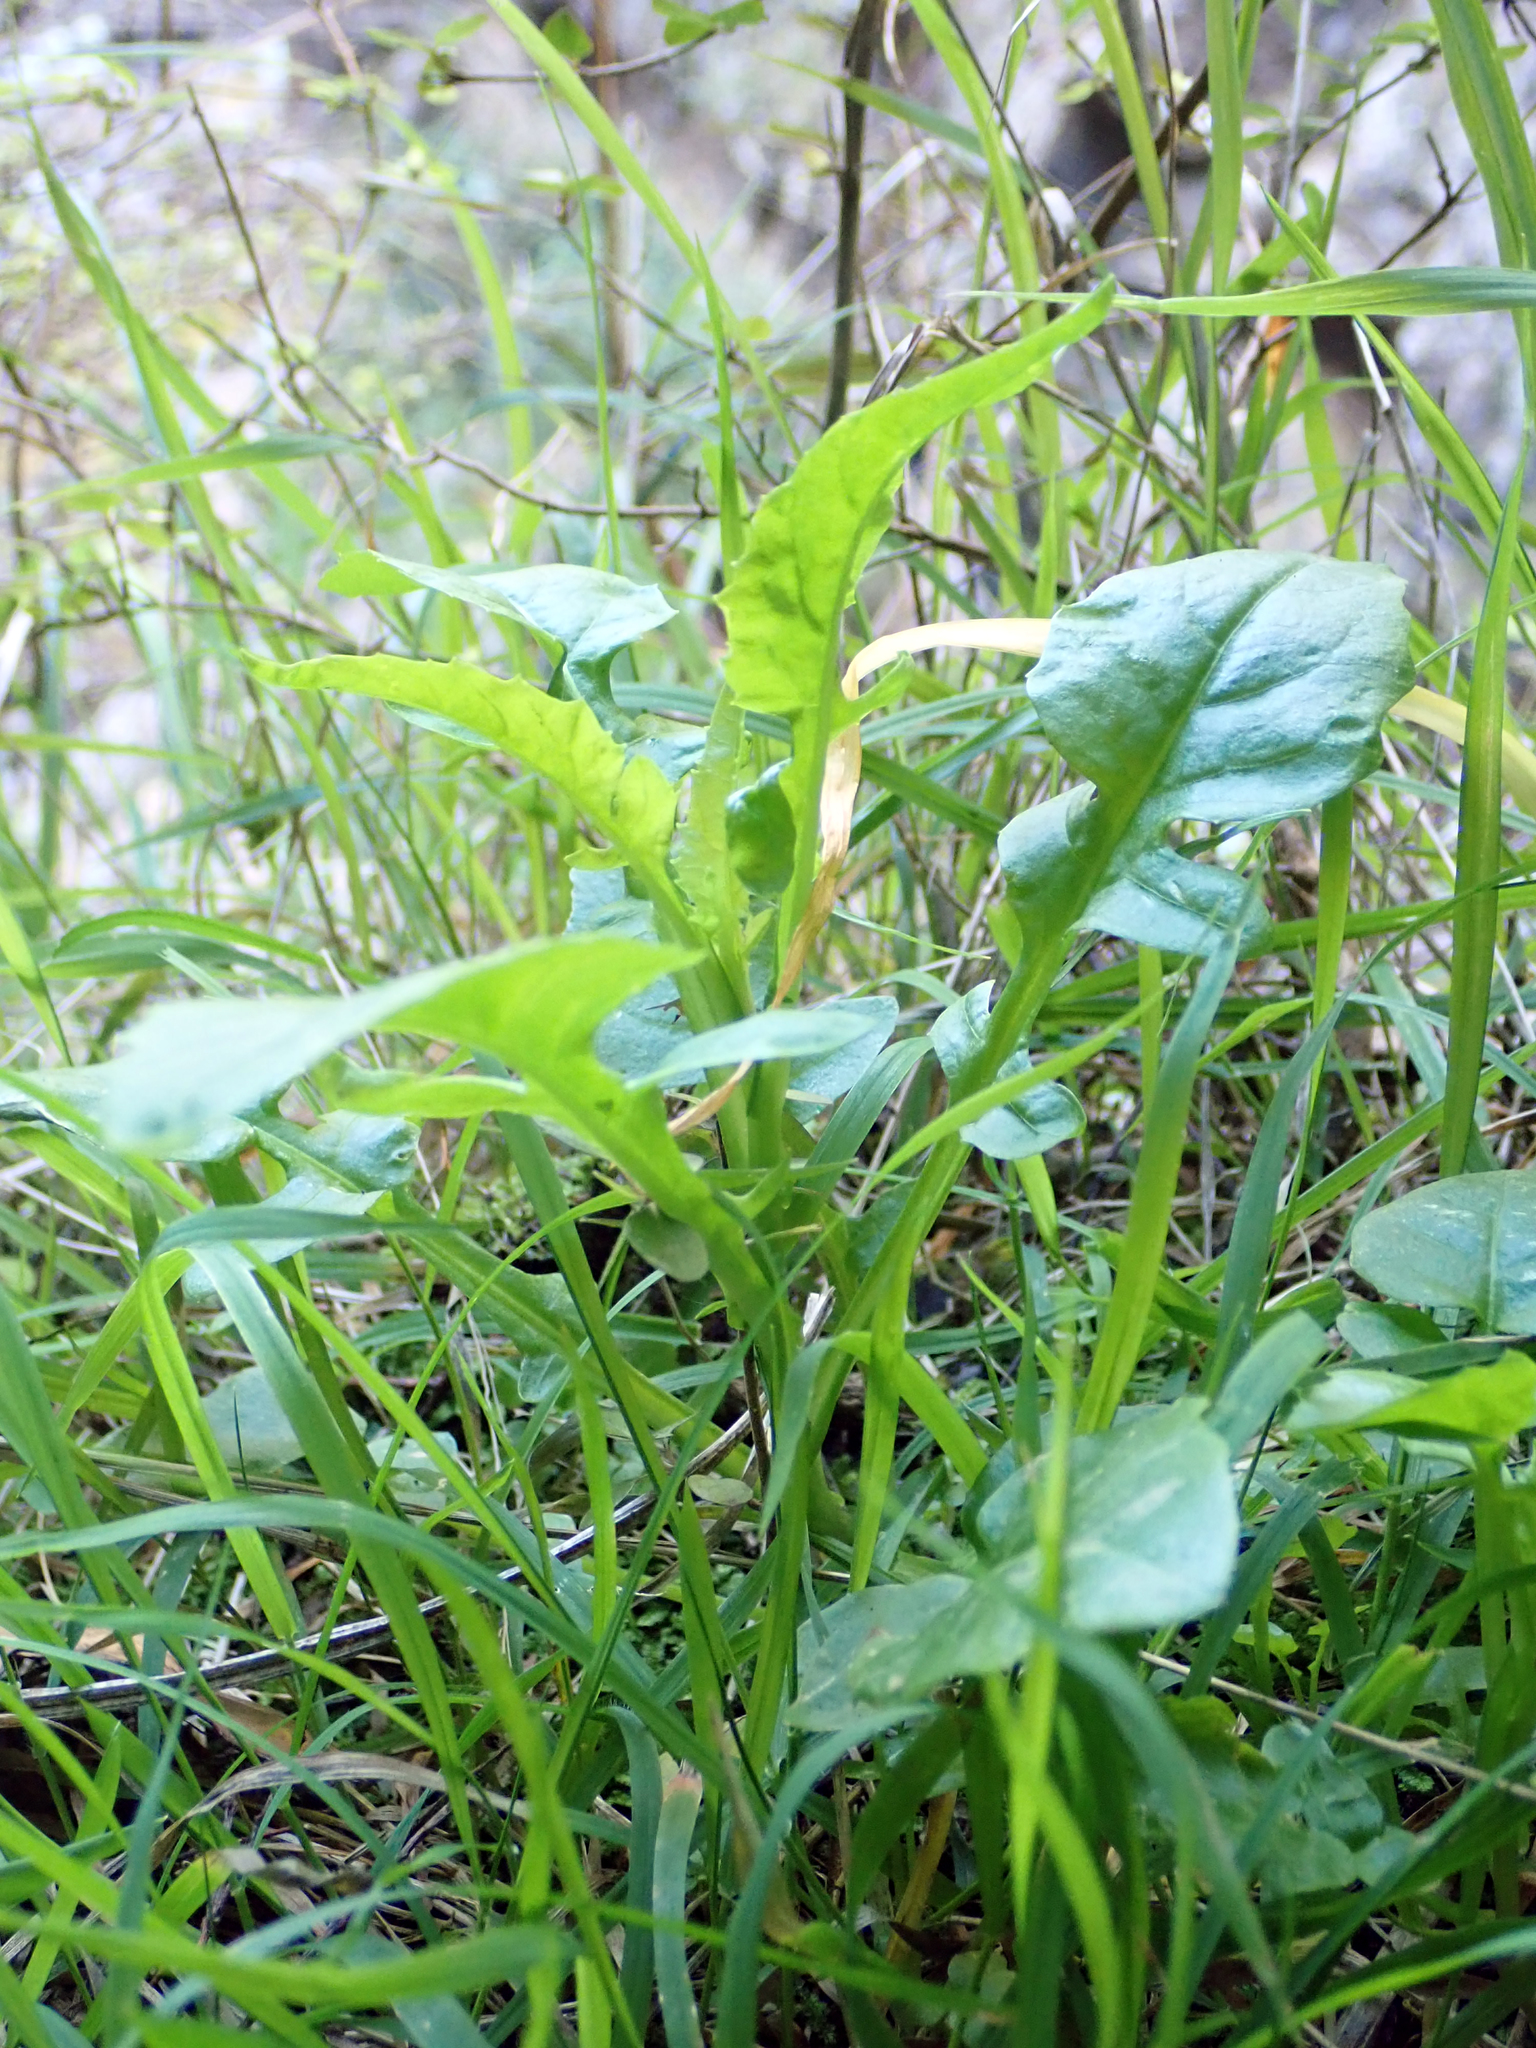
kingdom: Plantae
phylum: Tracheophyta
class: Magnoliopsida
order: Brassicales
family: Brassicaceae
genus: Rorippa
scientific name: Rorippa divaricata
